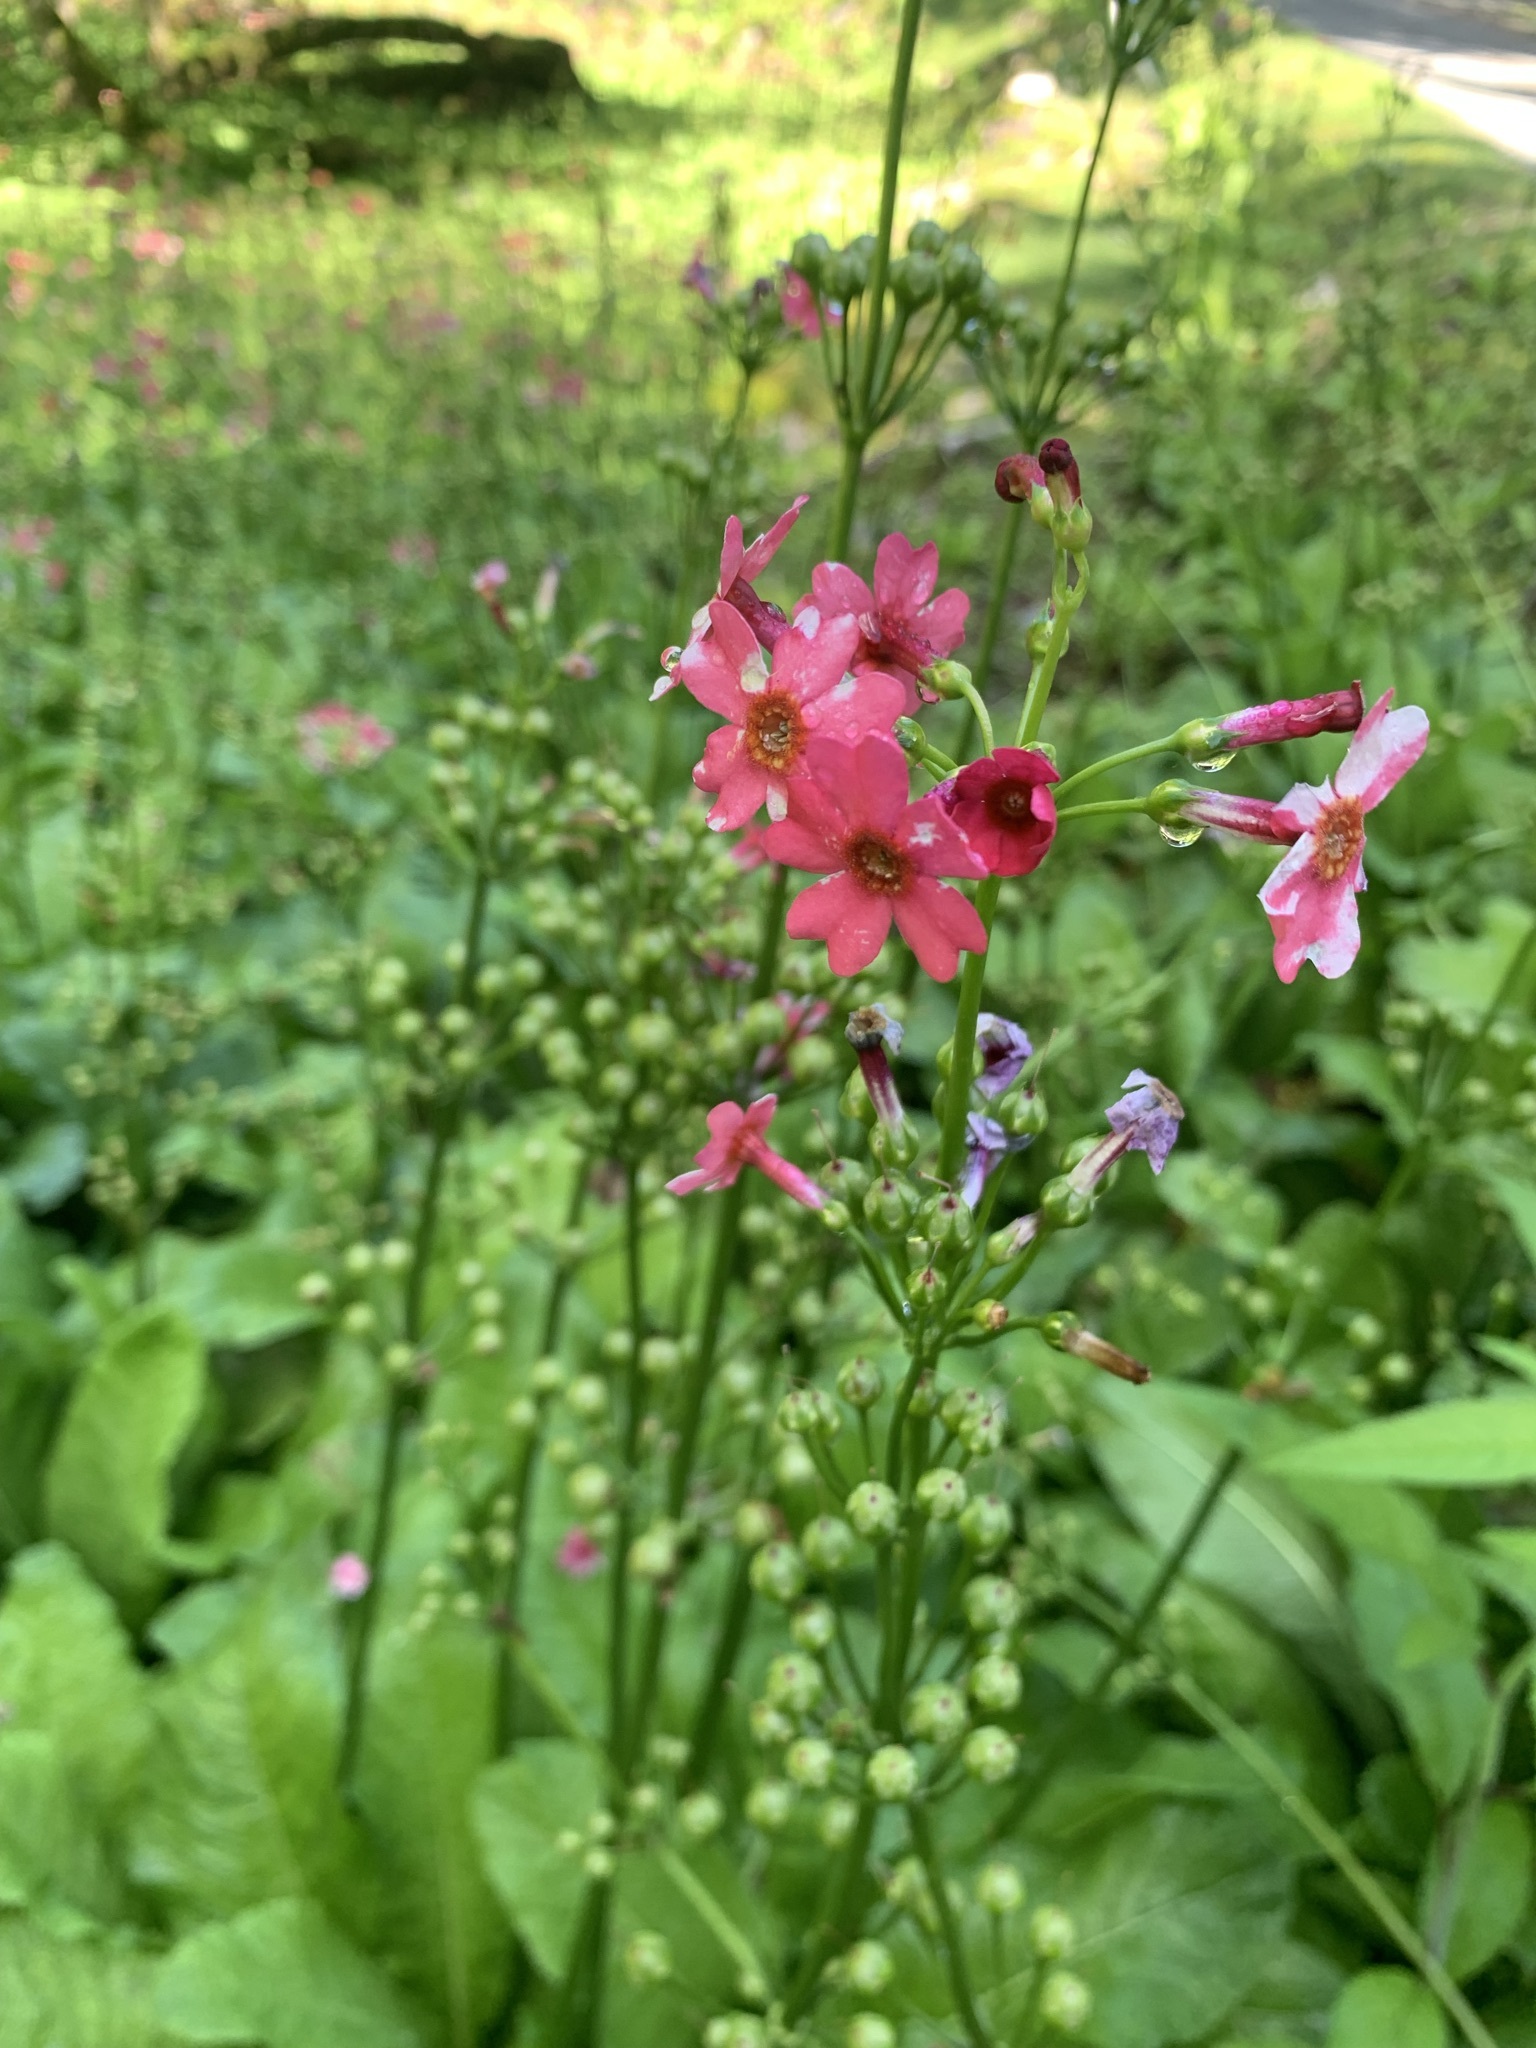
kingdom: Plantae
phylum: Tracheophyta
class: Magnoliopsida
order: Ericales
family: Primulaceae
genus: Primula
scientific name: Primula japonica
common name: Japanese cowslip
